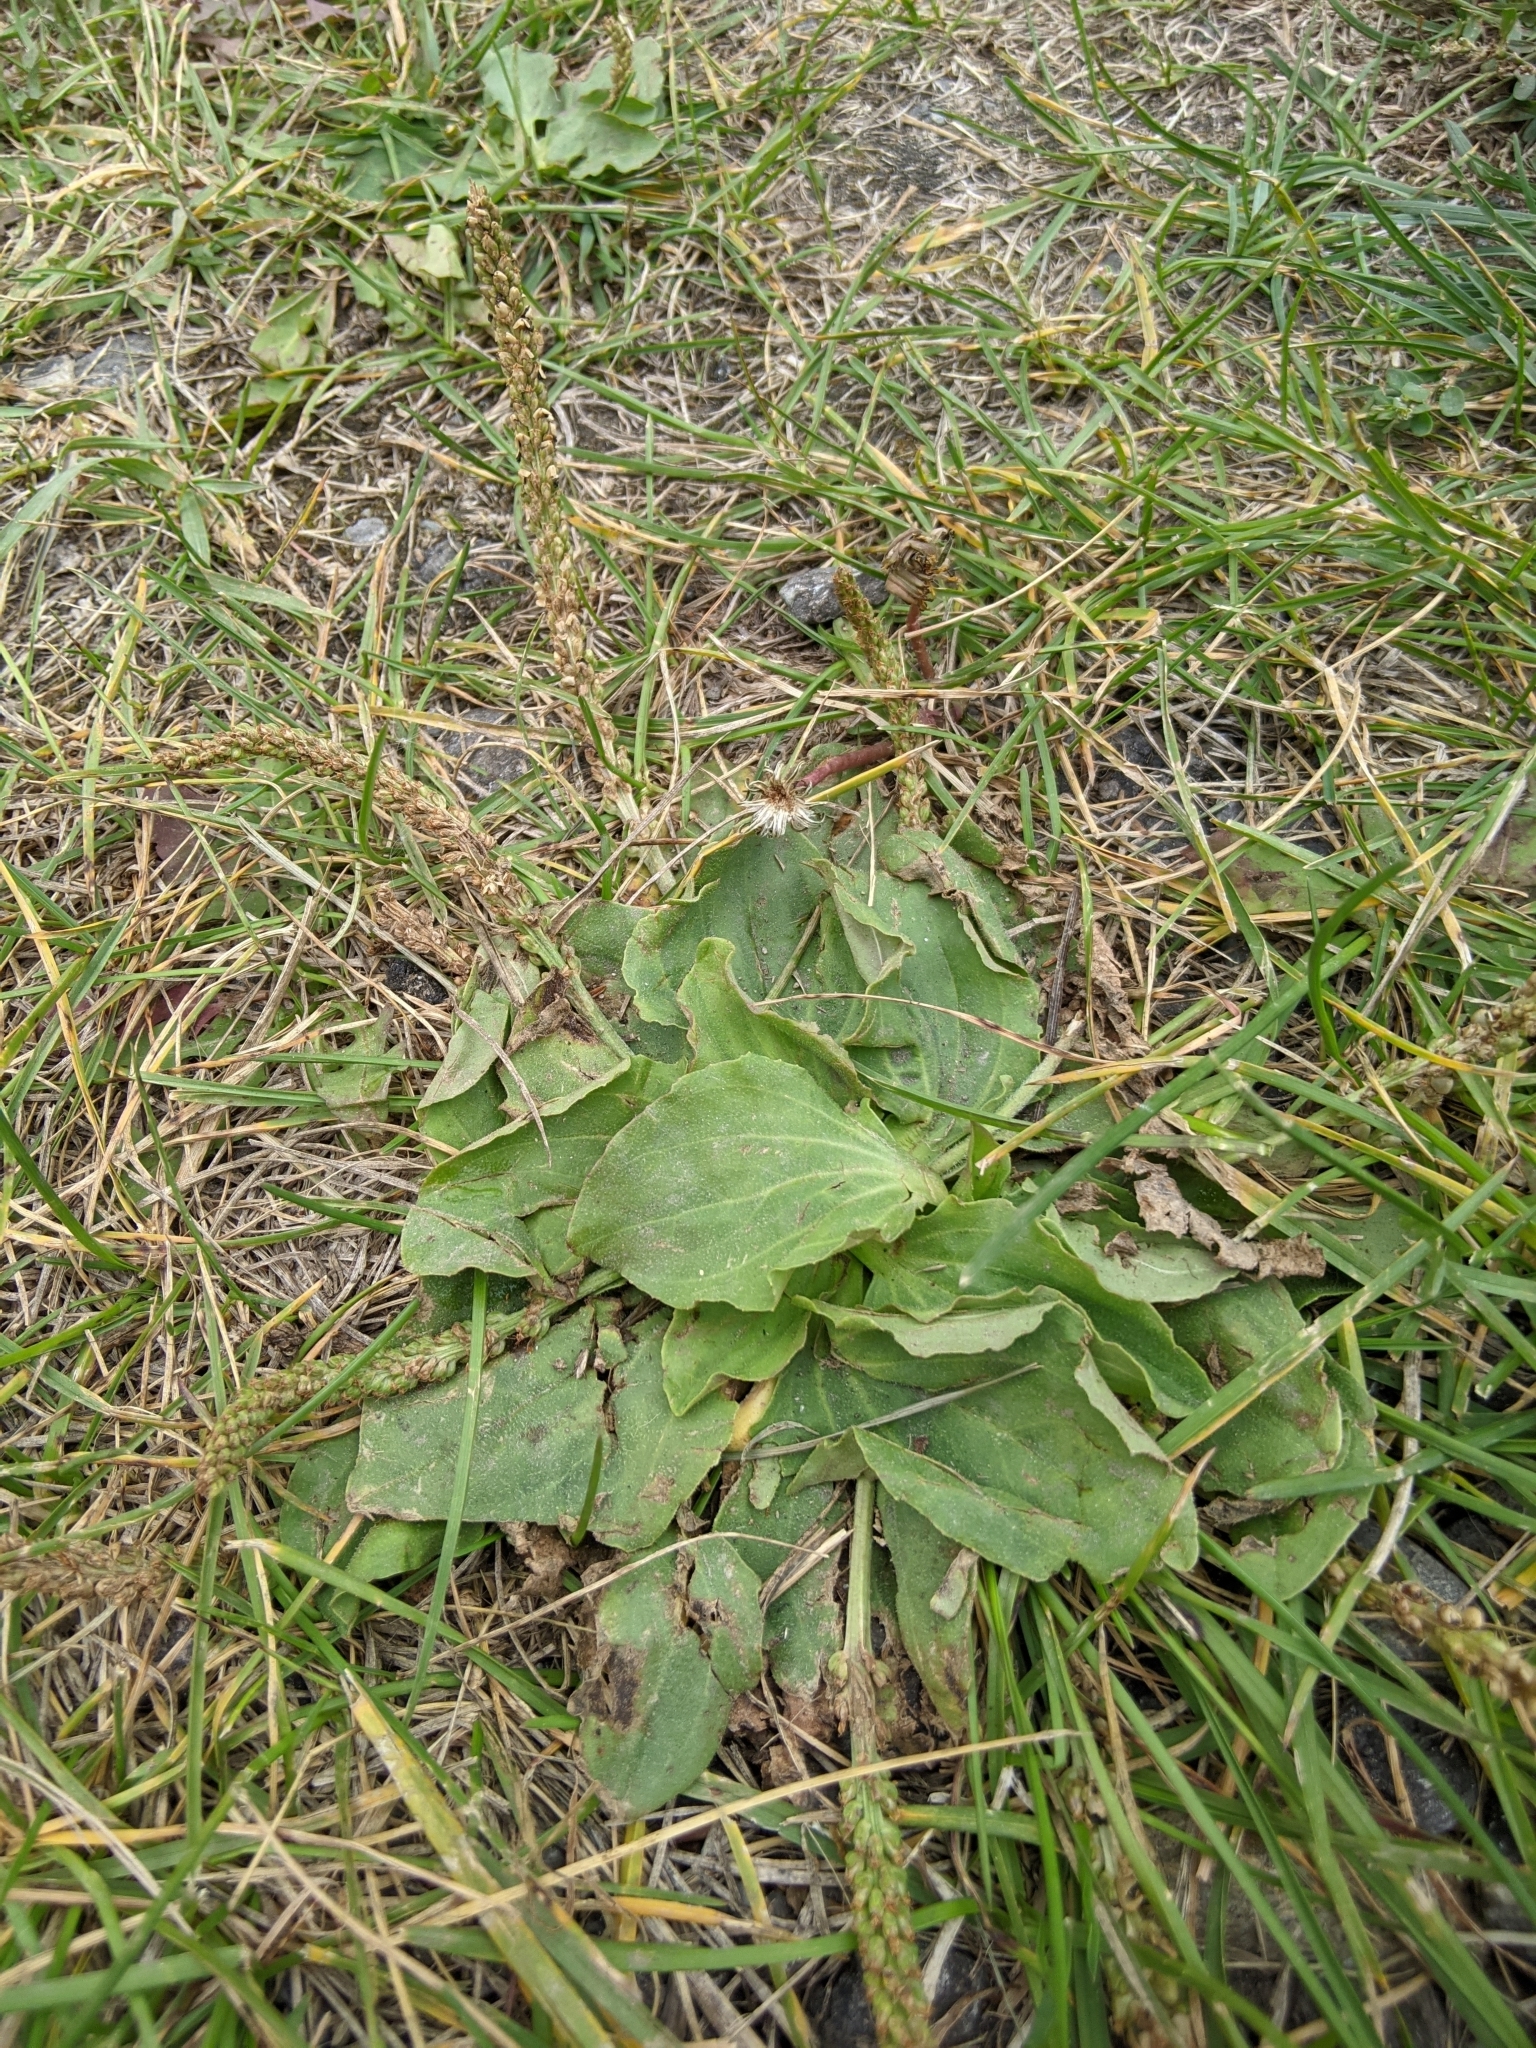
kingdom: Plantae
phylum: Tracheophyta
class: Magnoliopsida
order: Lamiales
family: Plantaginaceae
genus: Plantago
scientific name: Plantago major
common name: Common plantain
